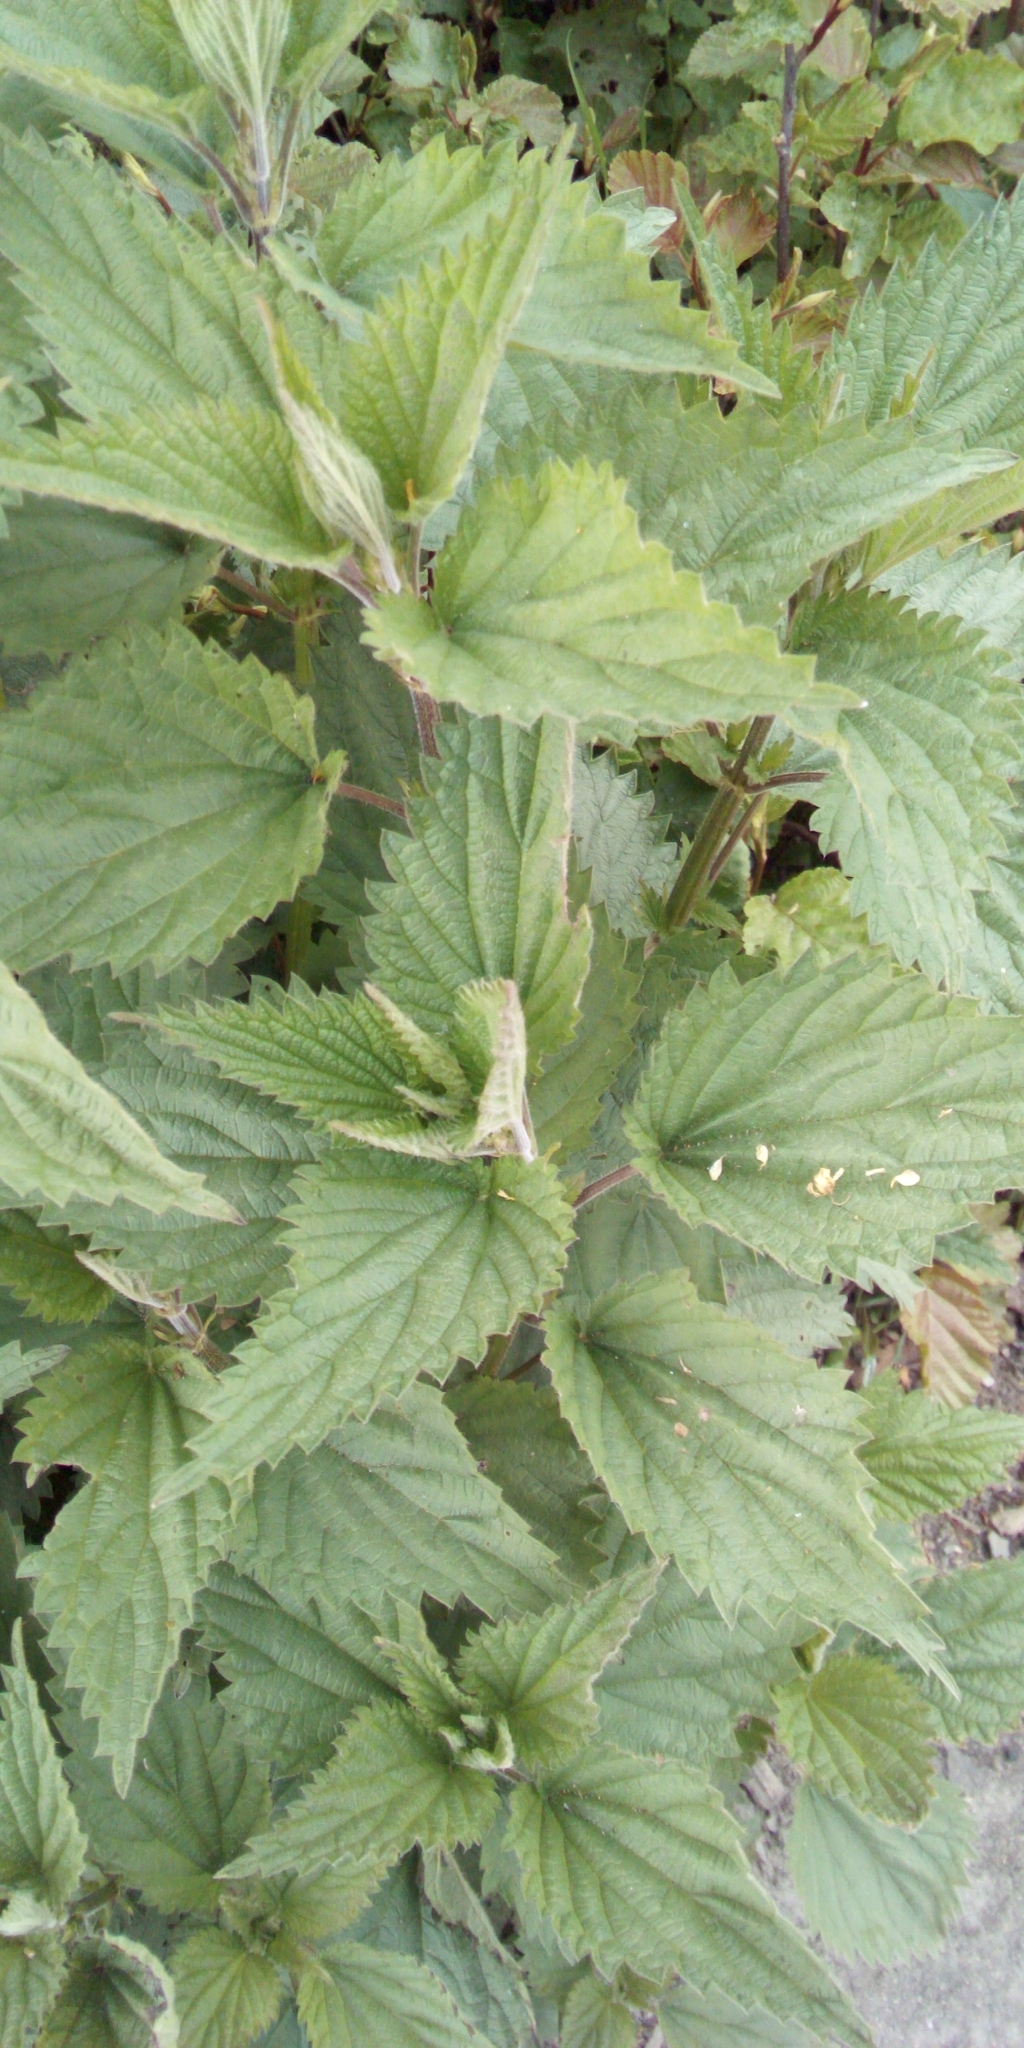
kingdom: Plantae
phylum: Tracheophyta
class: Magnoliopsida
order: Rosales
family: Urticaceae
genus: Urtica
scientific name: Urtica dioica
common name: Common nettle
